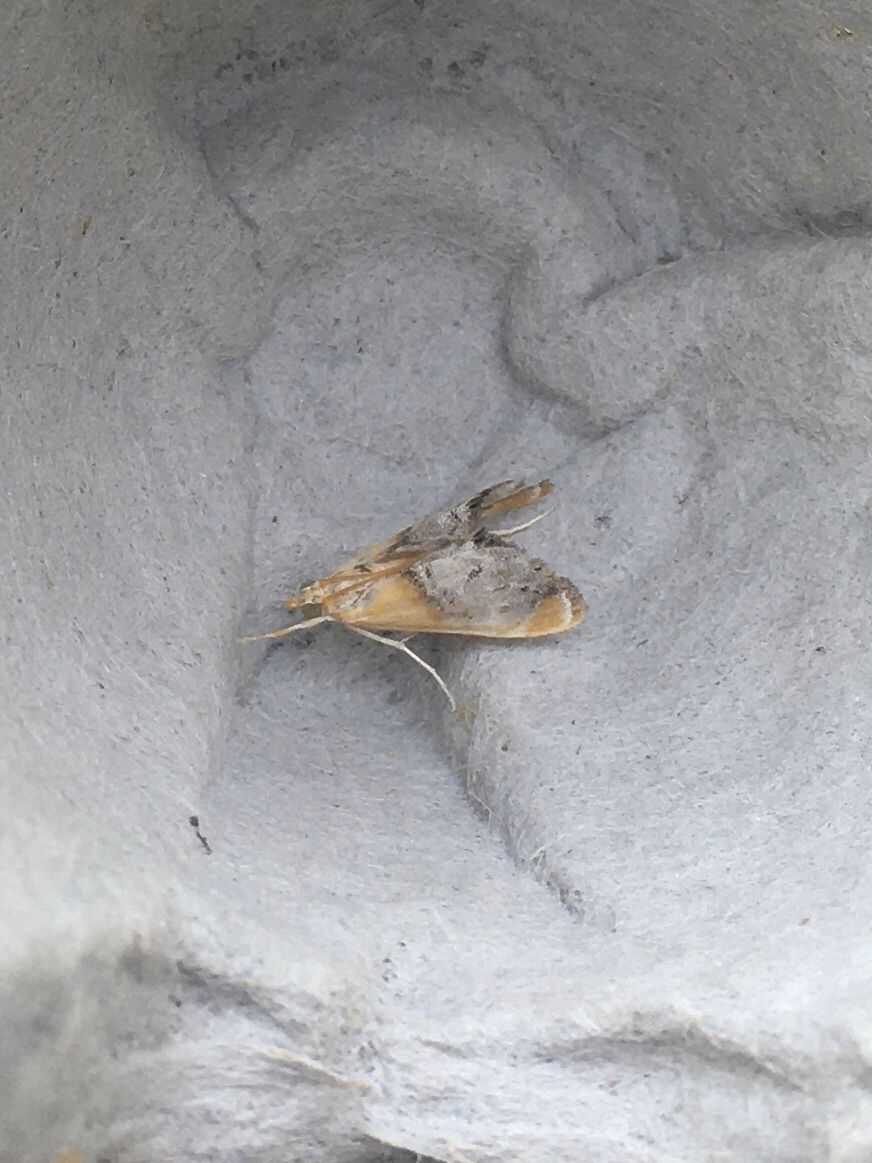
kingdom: Animalia
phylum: Arthropoda
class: Insecta
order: Lepidoptera
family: Crambidae
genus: Chalcoela
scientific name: Chalcoela iphitalis
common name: Sooty-winged chalcoela moth
